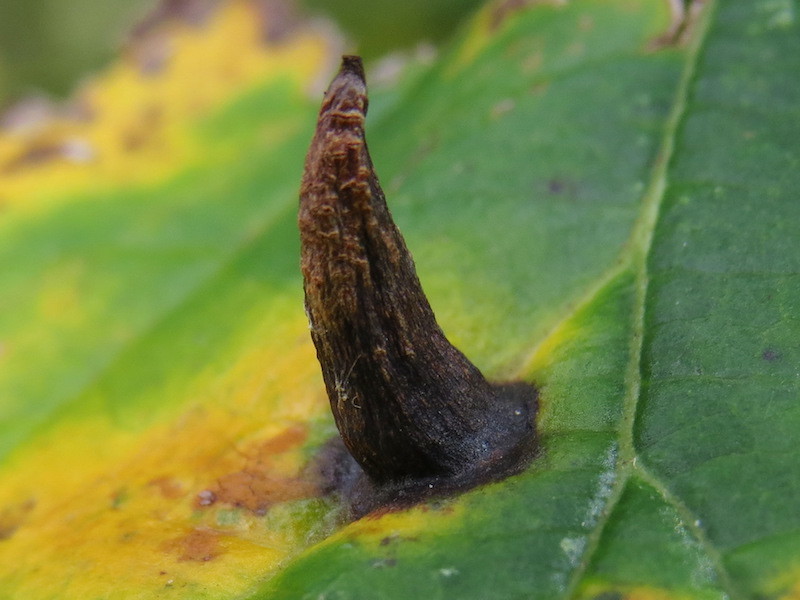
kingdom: Animalia
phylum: Arthropoda
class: Insecta
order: Hemiptera
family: Aphididae
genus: Hormaphis
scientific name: Hormaphis hamamelidis
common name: Witch-hazel cone gall aphid
